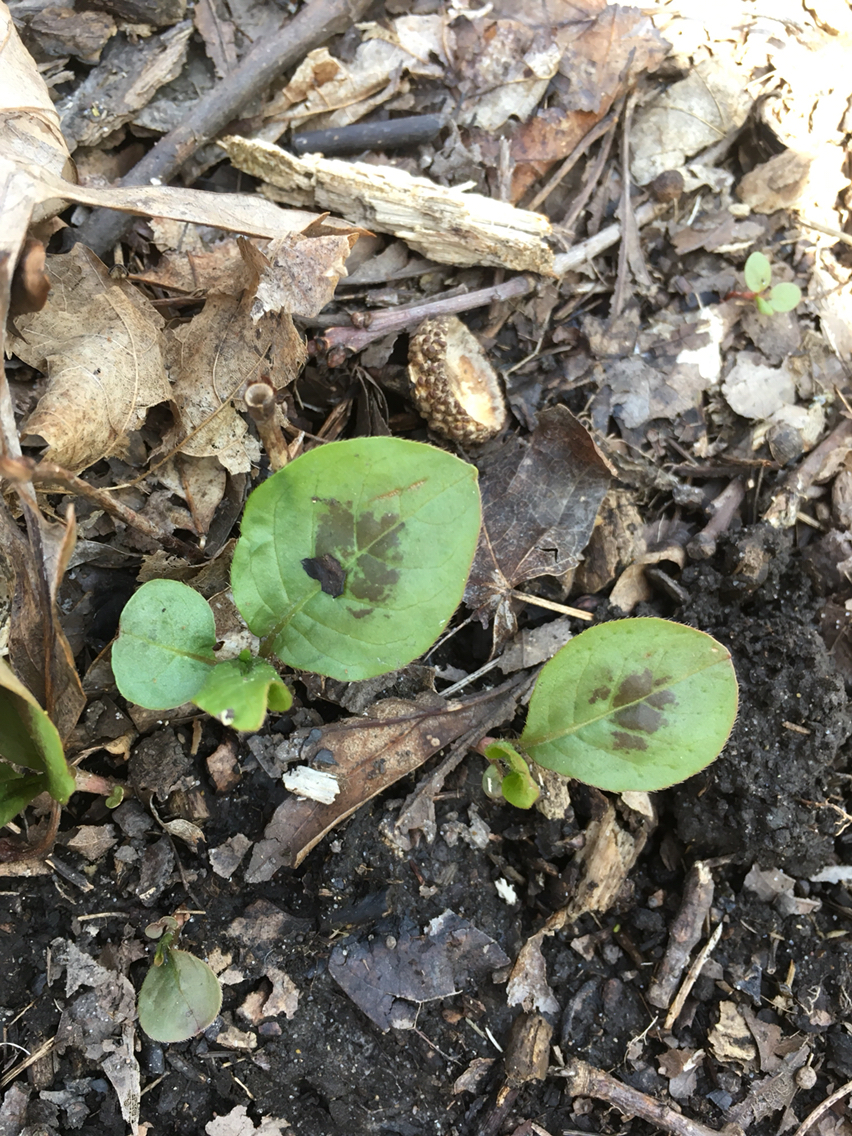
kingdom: Plantae
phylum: Tracheophyta
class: Magnoliopsida
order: Caryophyllales
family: Polygonaceae
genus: Persicaria
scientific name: Persicaria virginiana
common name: Jumpseed
